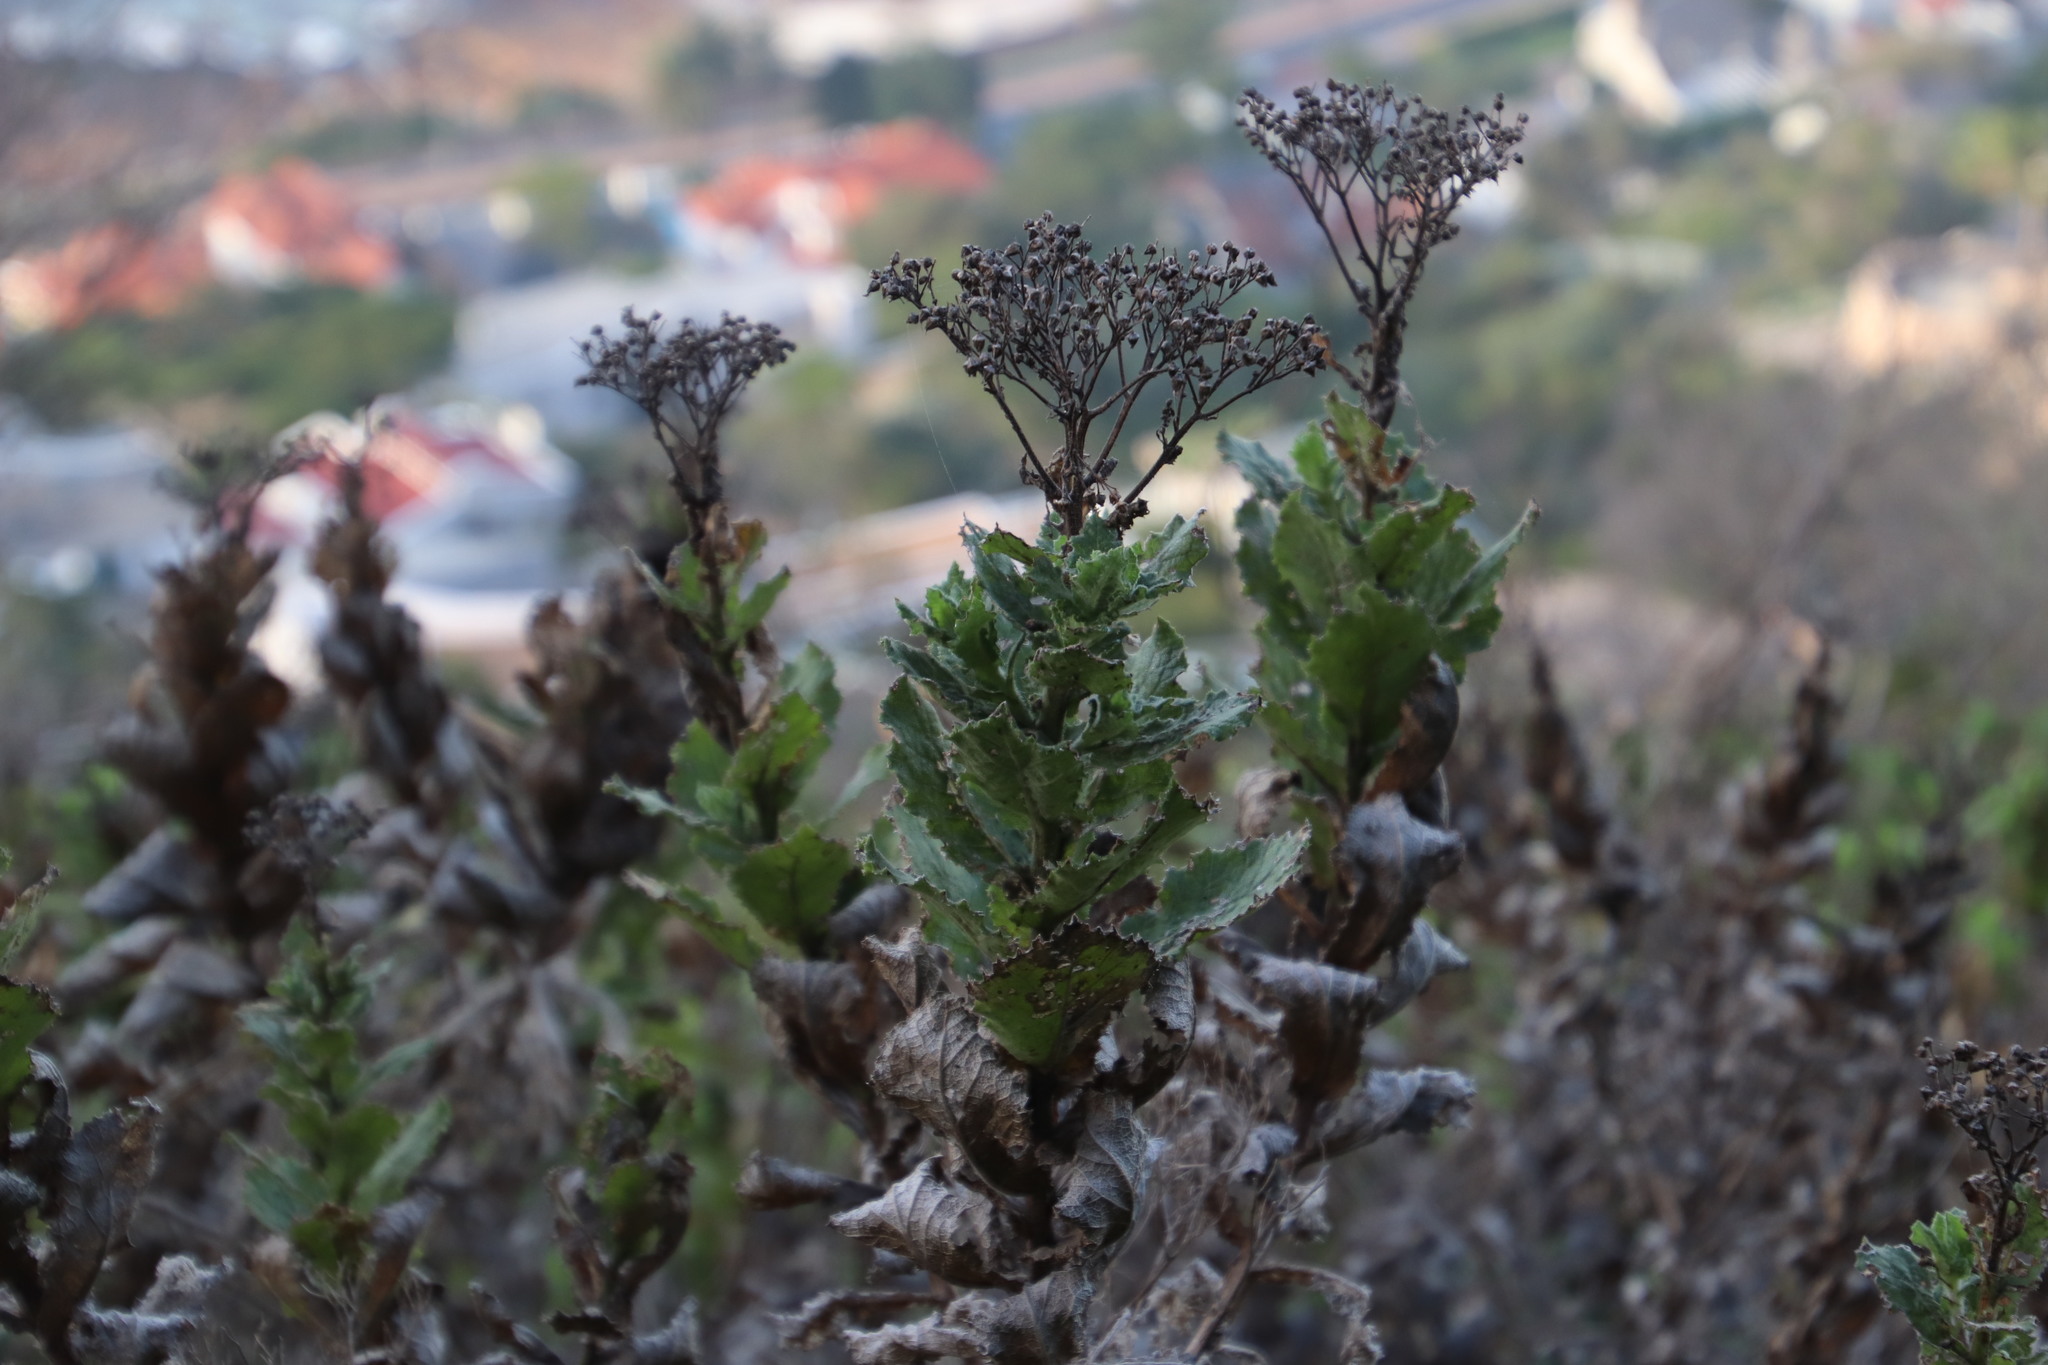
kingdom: Plantae
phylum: Tracheophyta
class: Magnoliopsida
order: Asterales
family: Asteraceae
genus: Senecio
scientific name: Senecio rigidus
